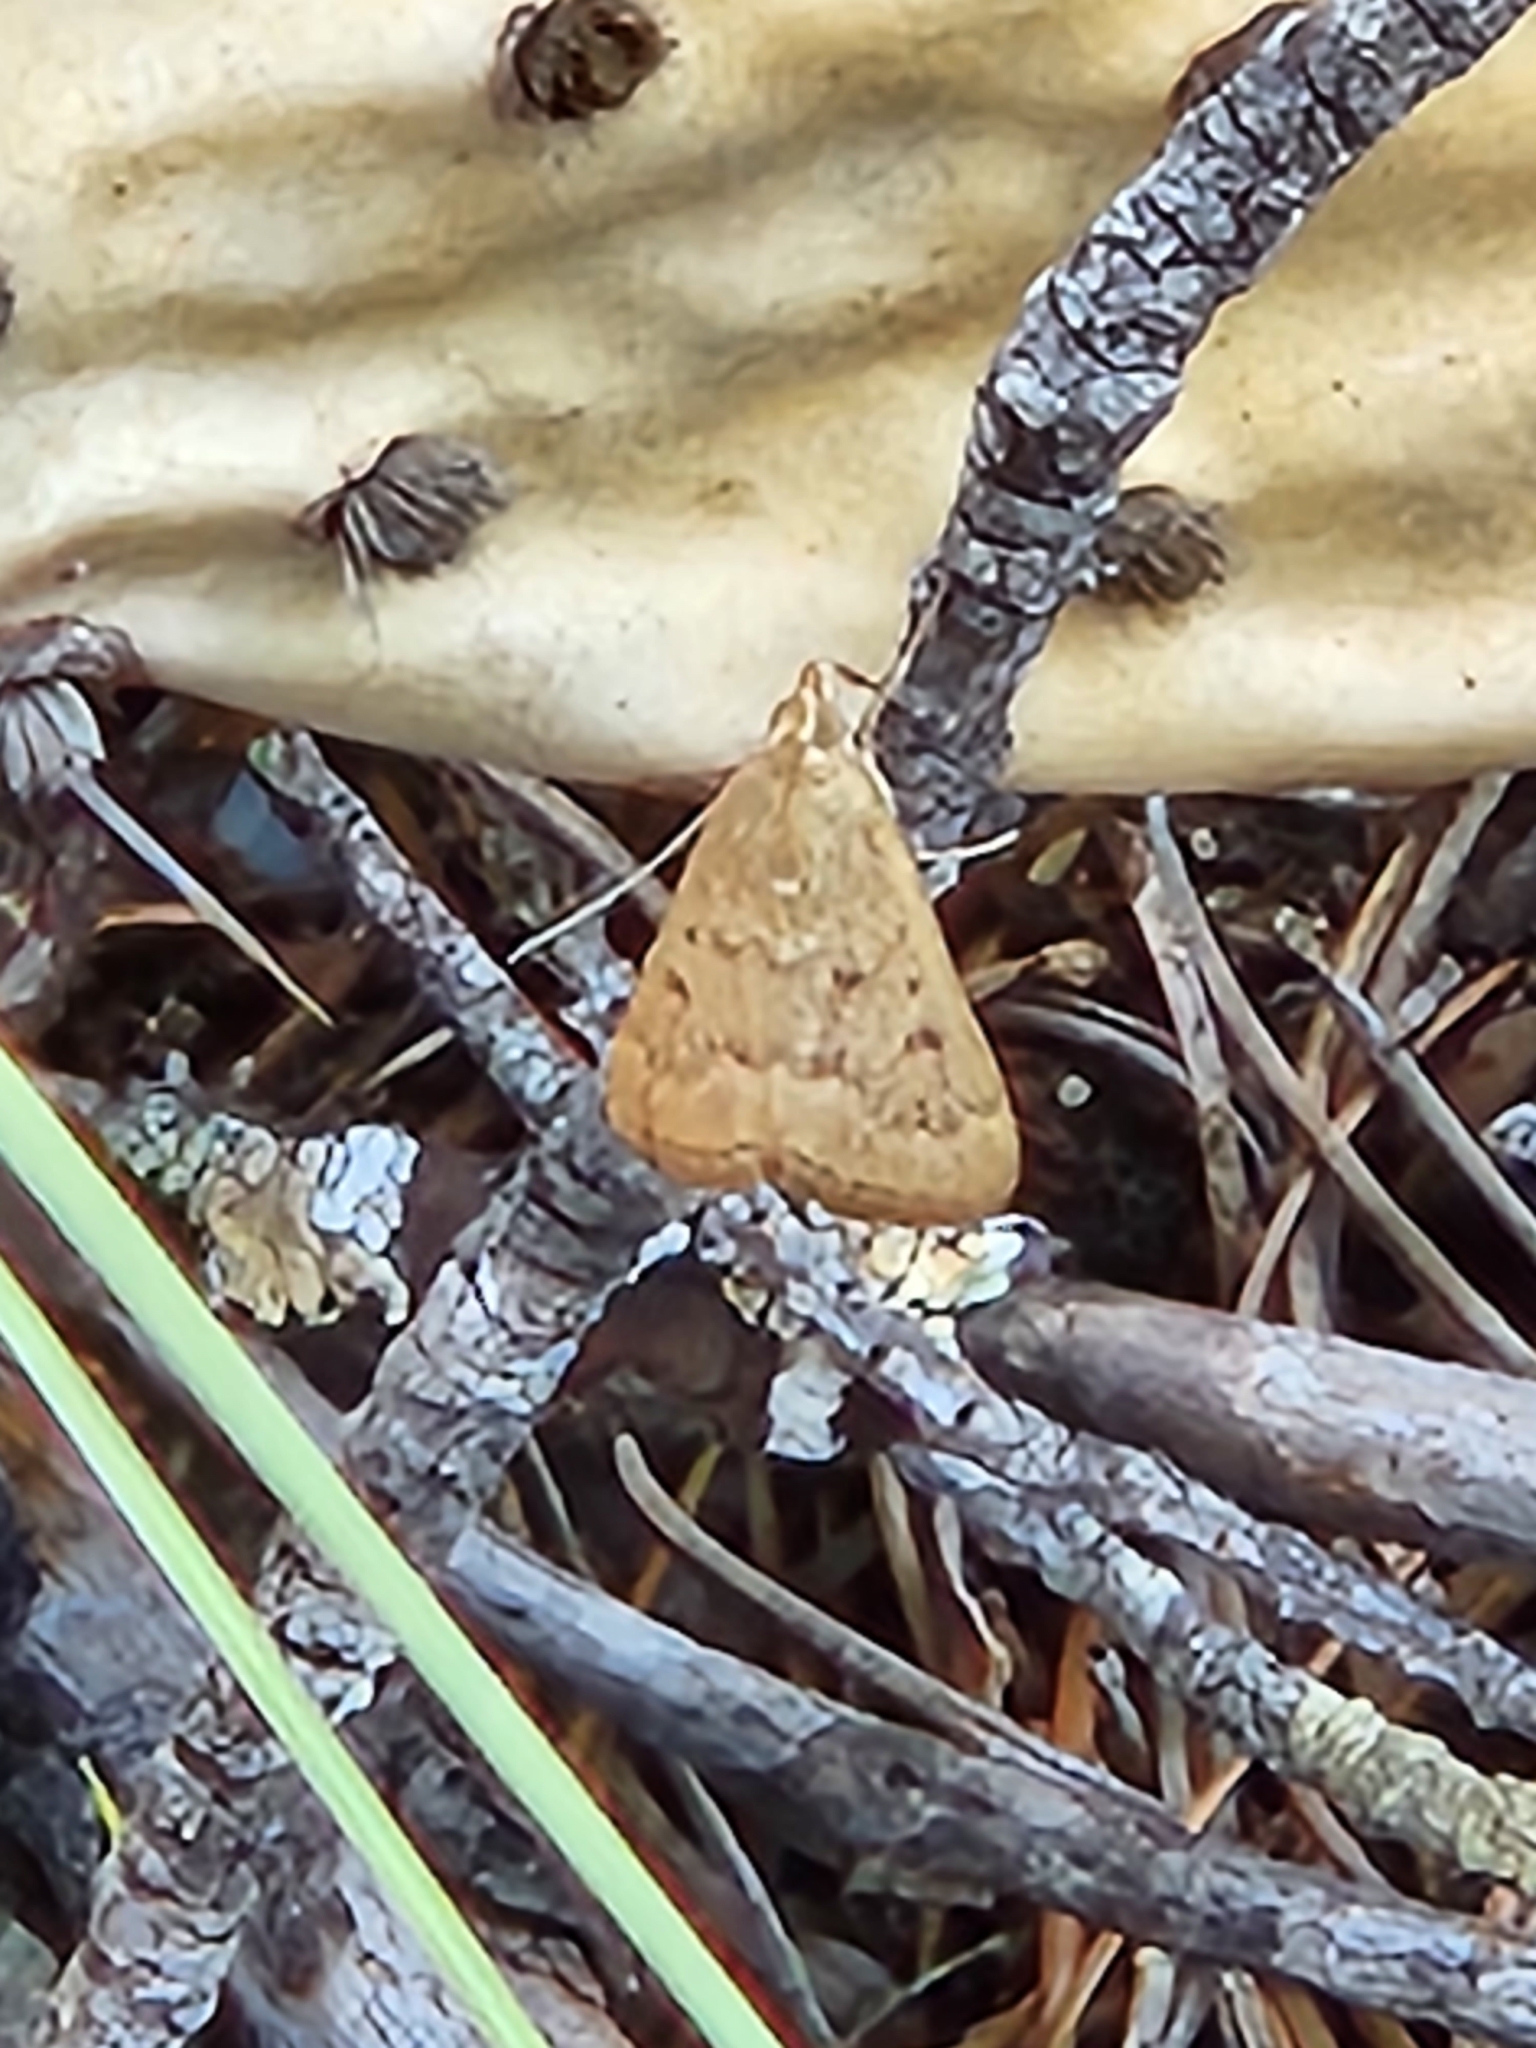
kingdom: Animalia
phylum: Arthropoda
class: Insecta
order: Lepidoptera
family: Crambidae
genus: Achyra
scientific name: Achyra rantalis
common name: Garden webworm
